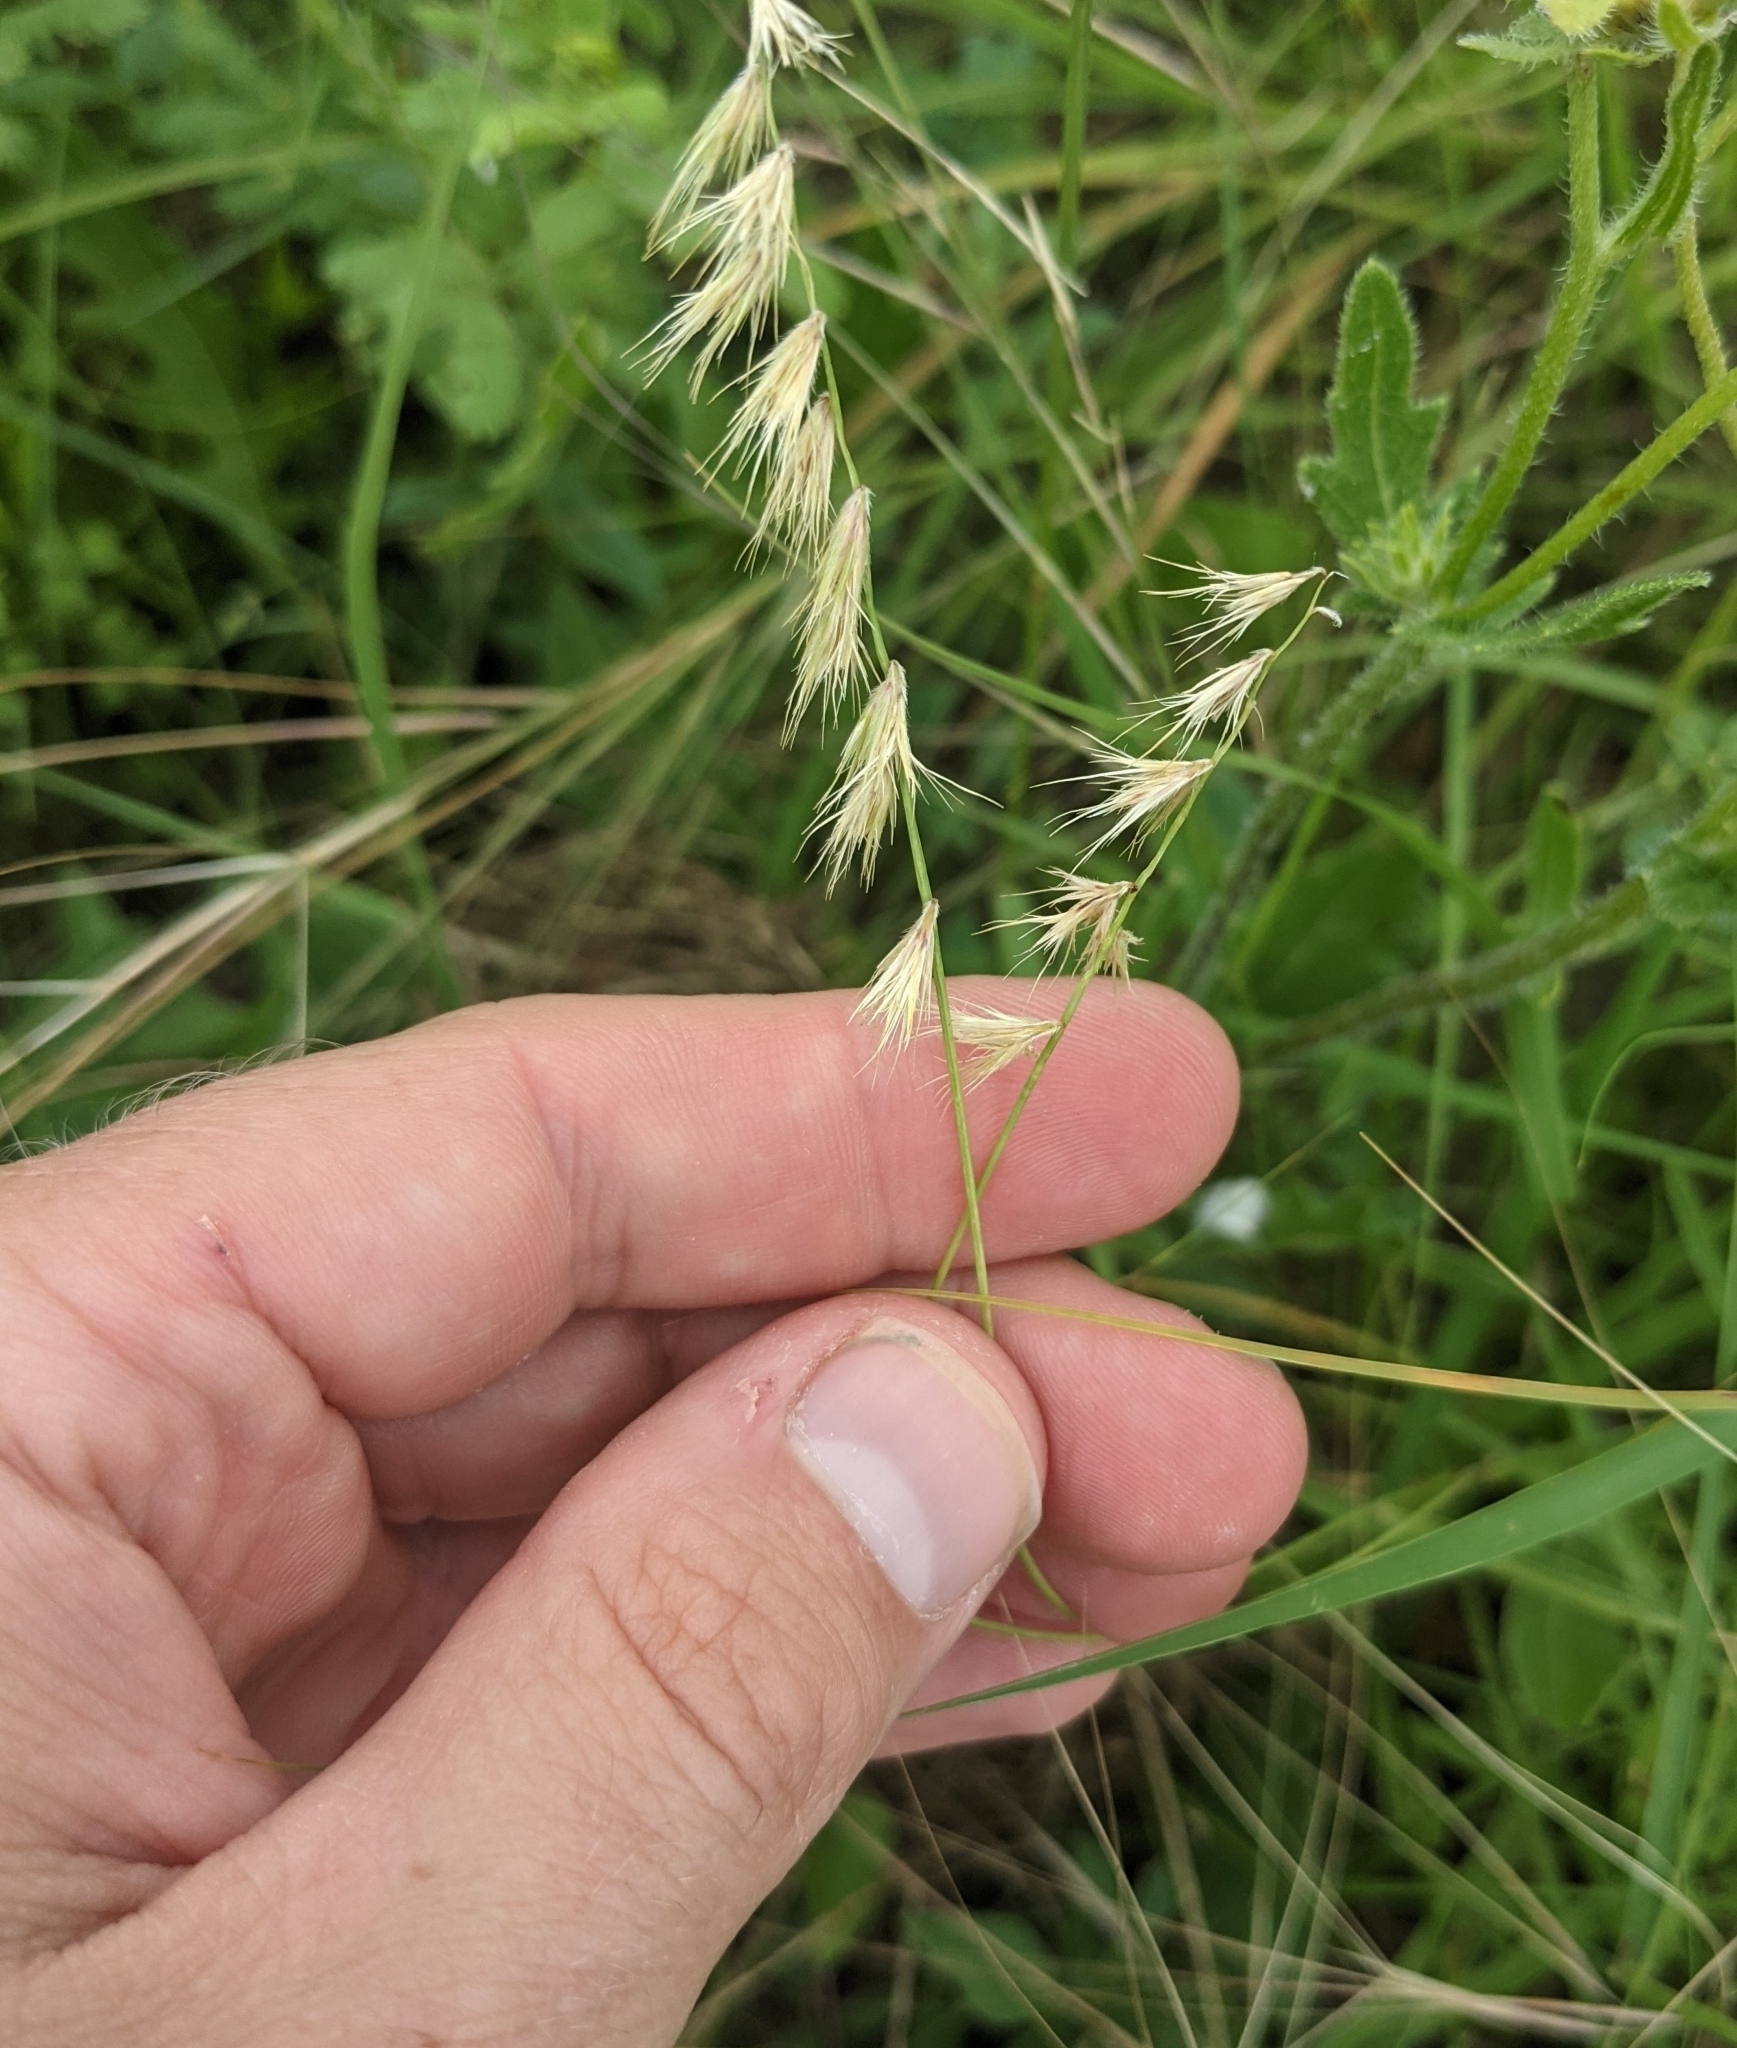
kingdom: Plantae
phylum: Tracheophyta
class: Liliopsida
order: Poales
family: Poaceae
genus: Bouteloua
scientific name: Bouteloua rigidiseta
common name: Texas grama
